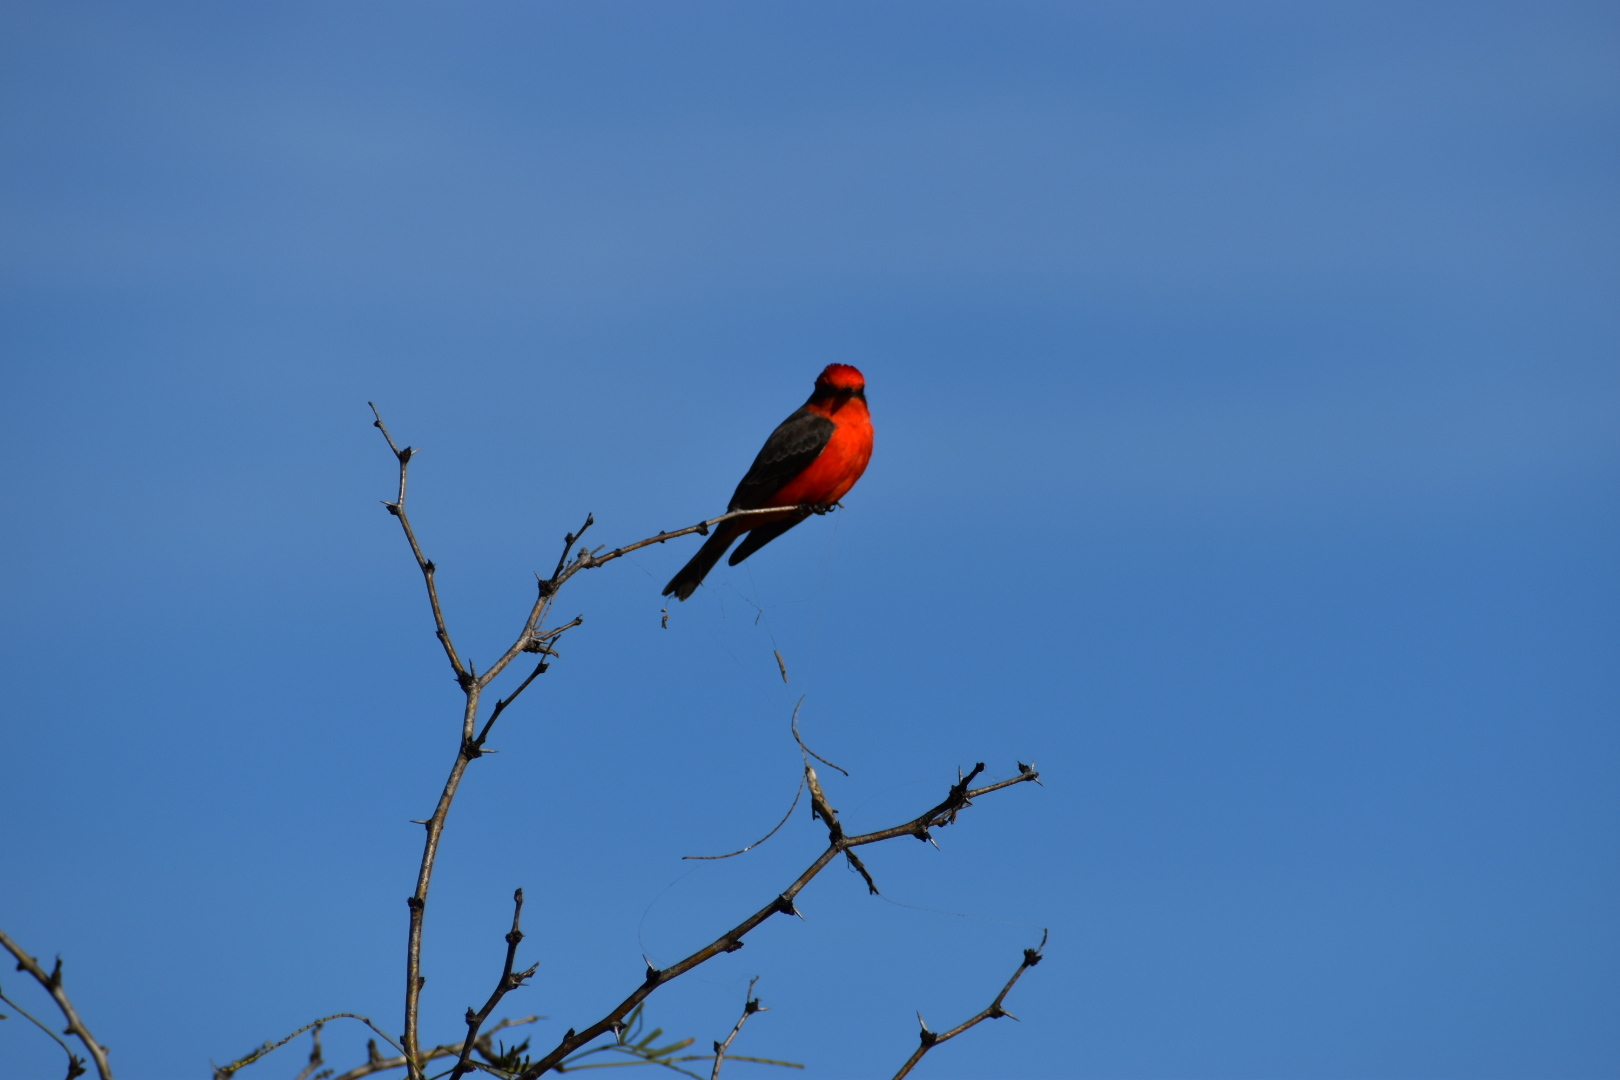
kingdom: Animalia
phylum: Chordata
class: Aves
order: Passeriformes
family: Tyrannidae
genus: Pyrocephalus
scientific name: Pyrocephalus rubinus
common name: Vermilion flycatcher
